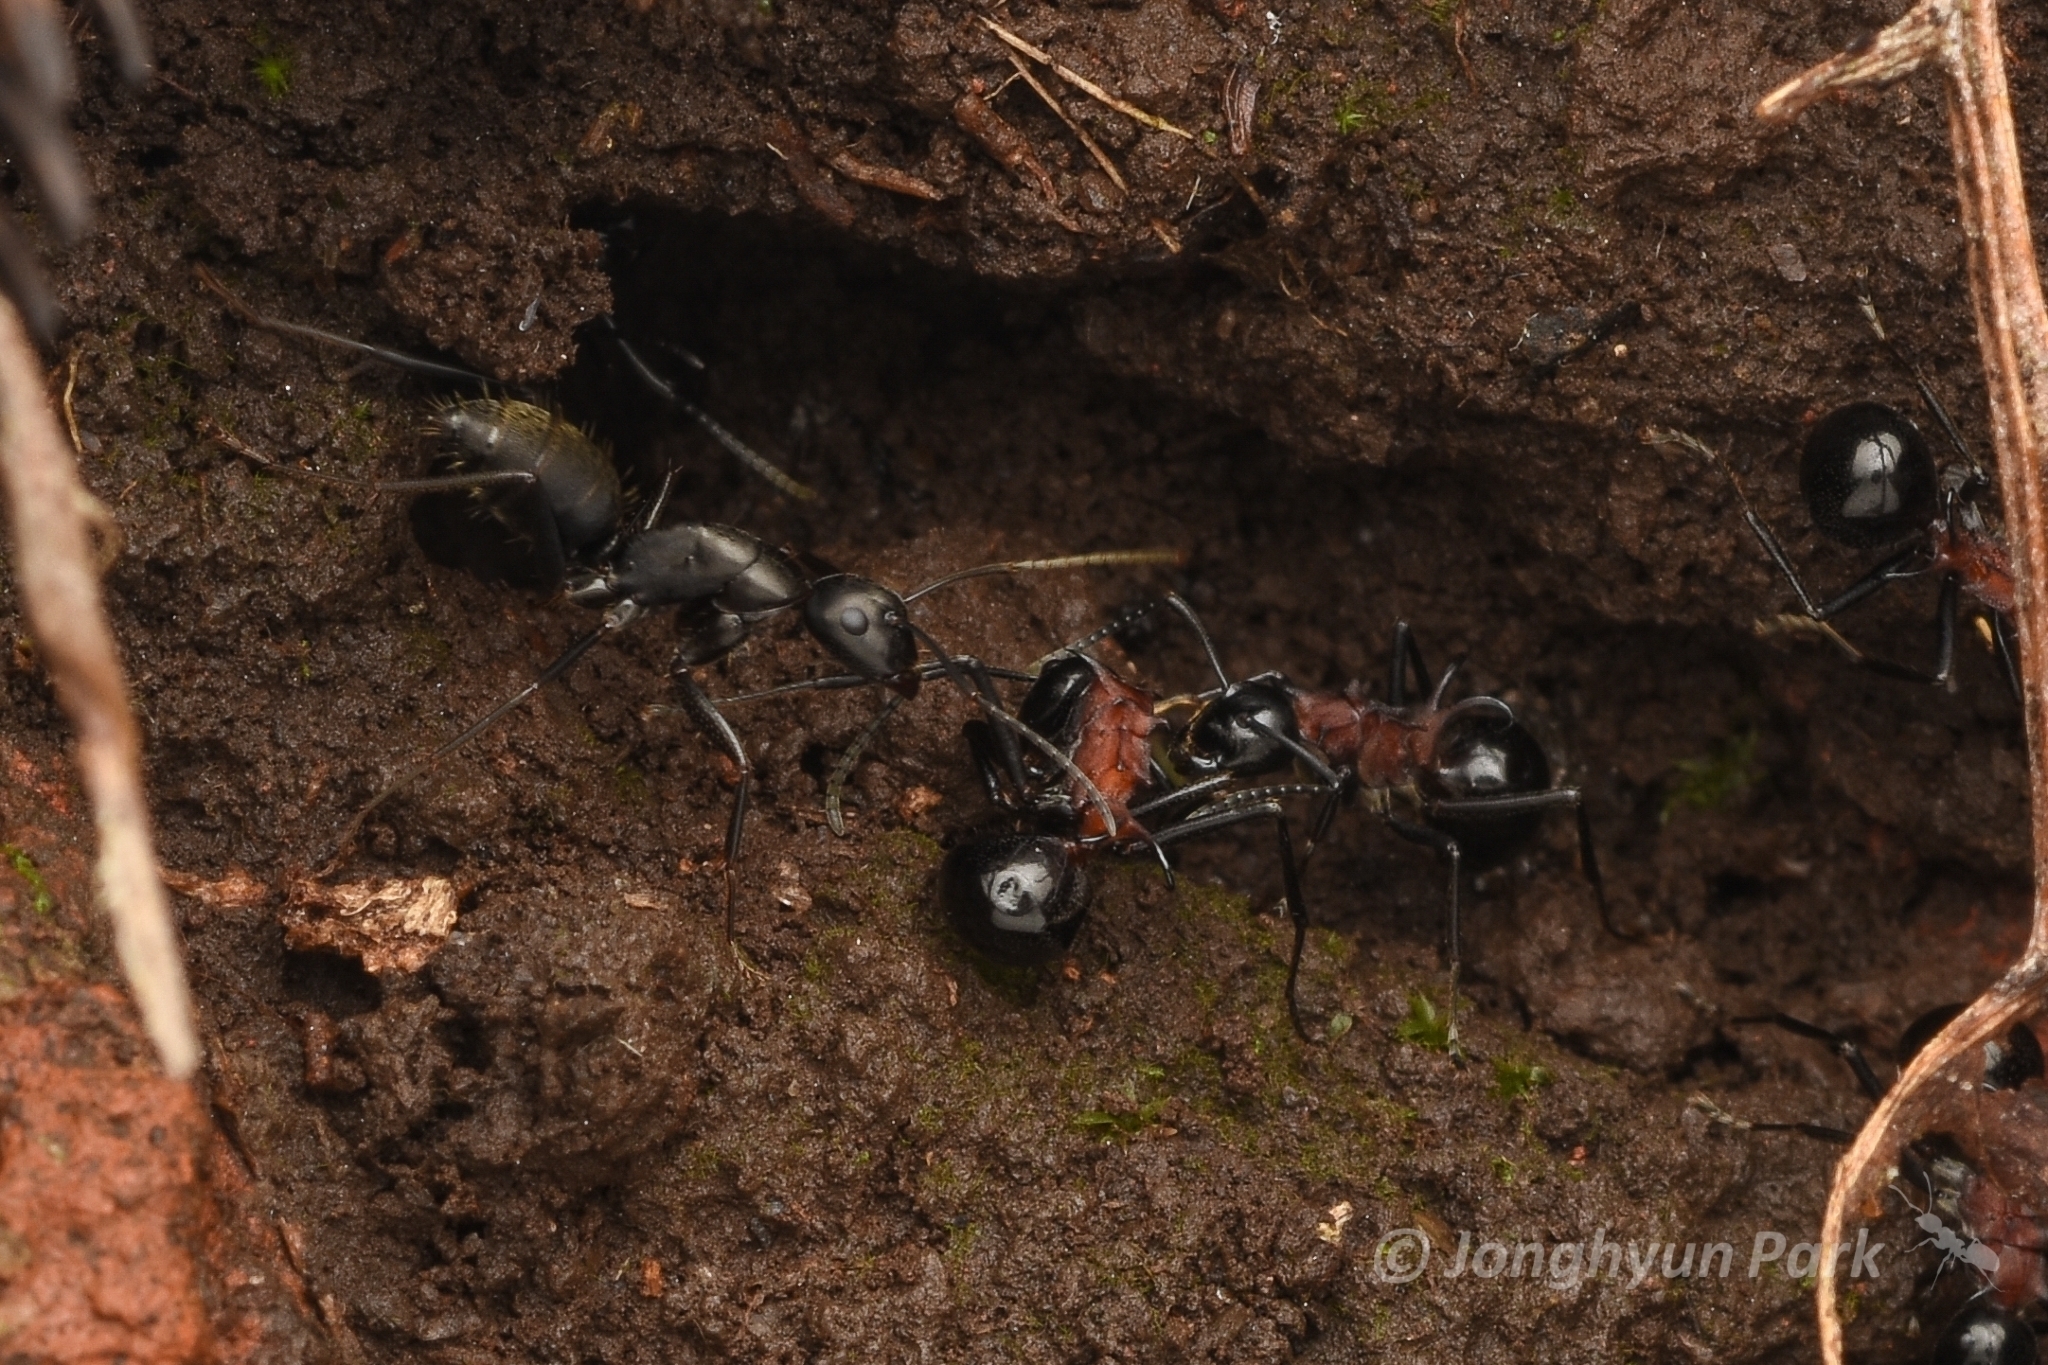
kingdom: Animalia
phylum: Arthropoda
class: Insecta
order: Hymenoptera
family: Formicidae
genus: Polyrhachis
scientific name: Polyrhachis lamellidens
